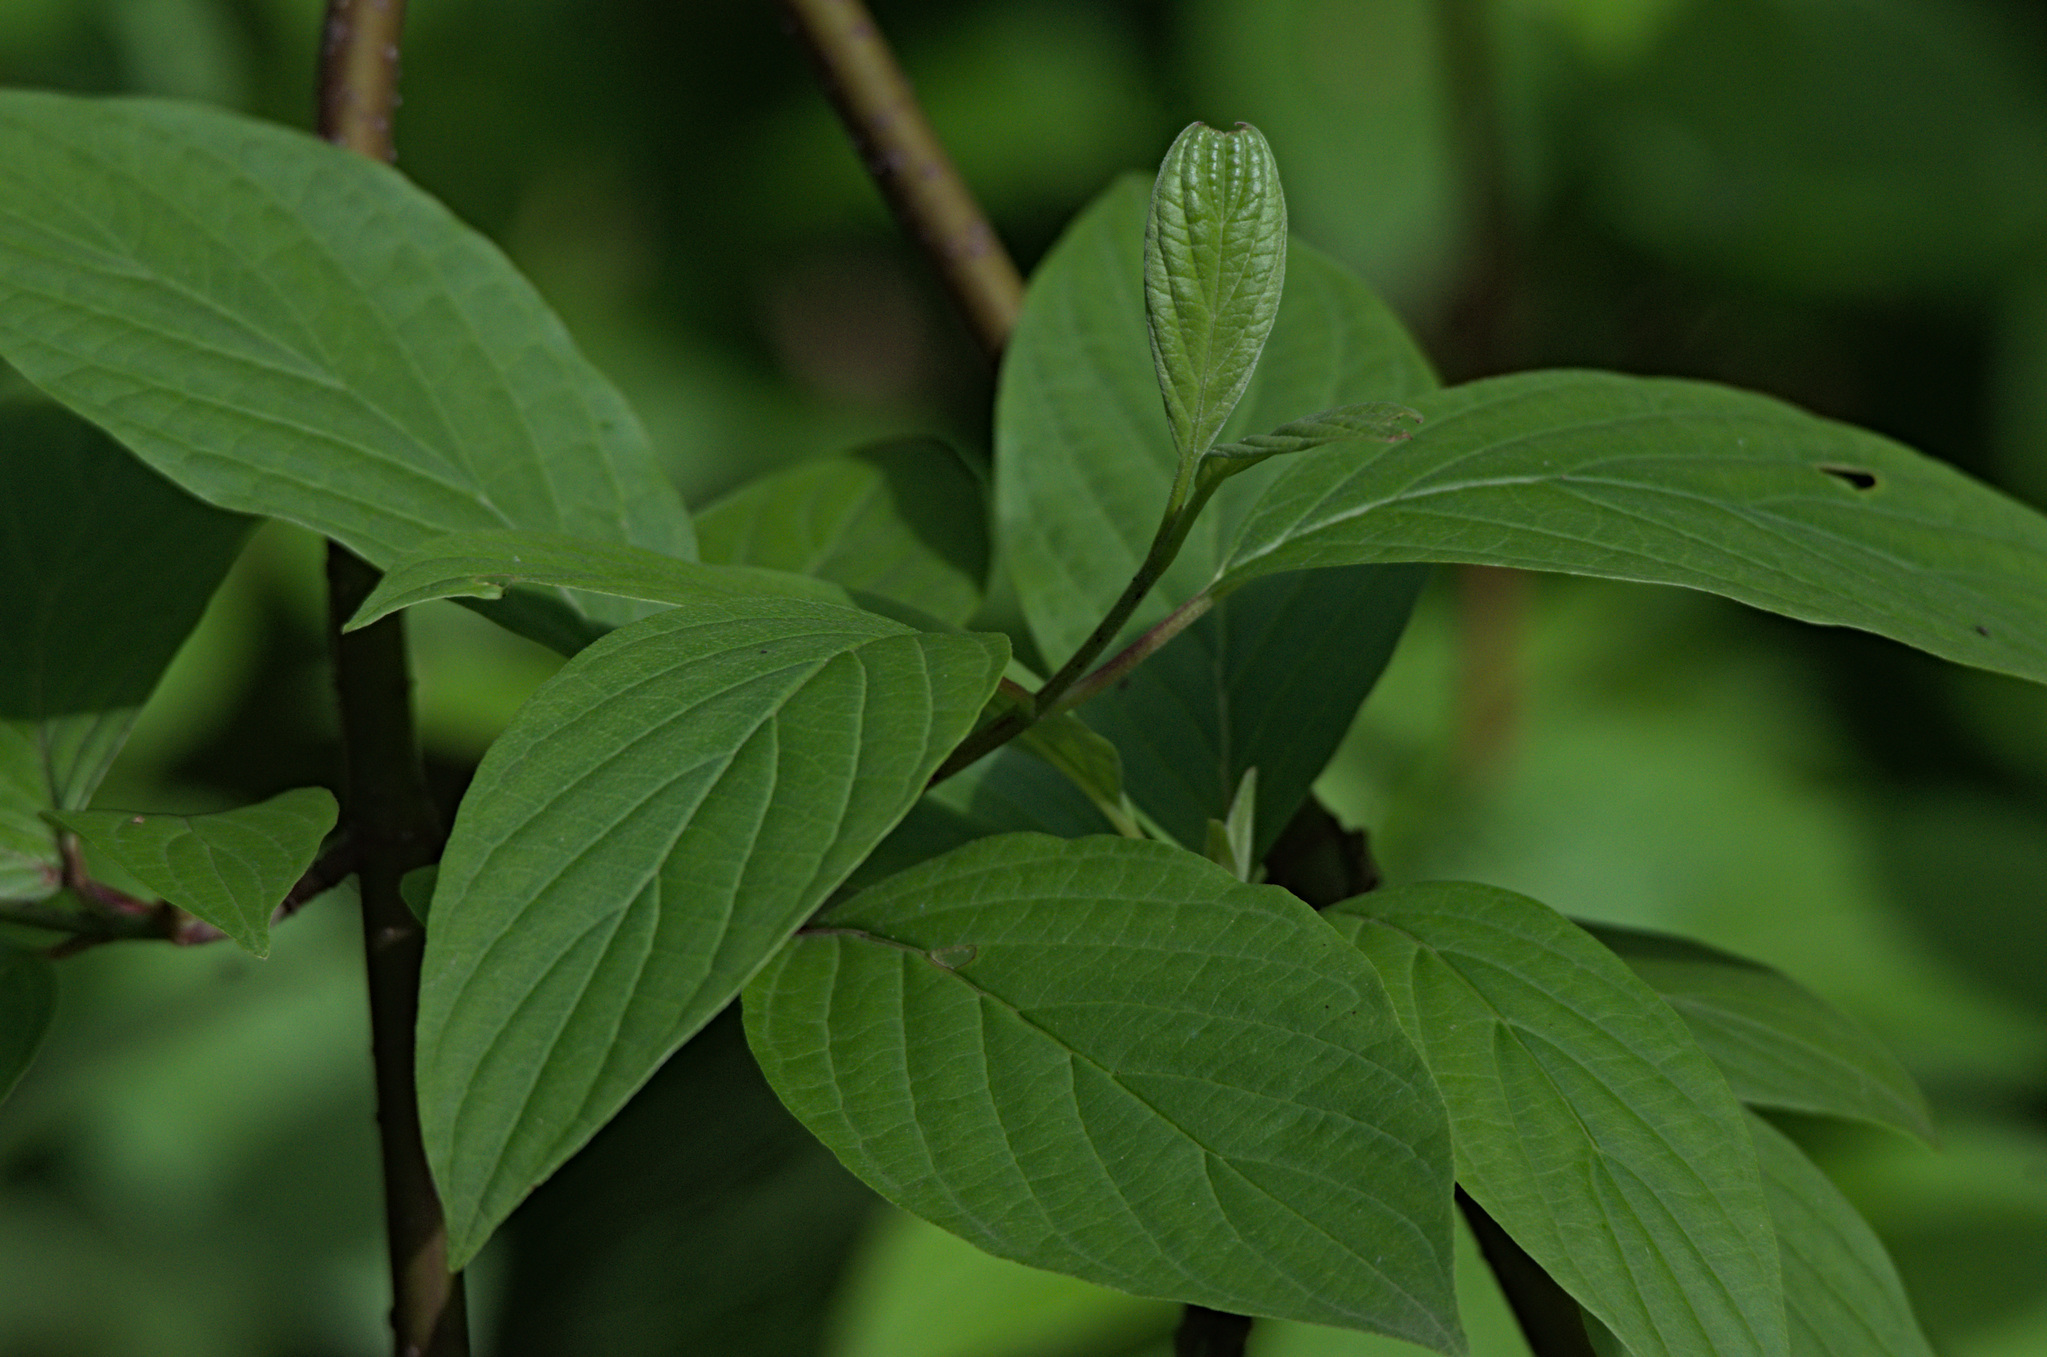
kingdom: Plantae
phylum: Tracheophyta
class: Magnoliopsida
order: Cornales
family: Cornaceae
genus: Cornus
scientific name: Cornus alba
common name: White dogwood
